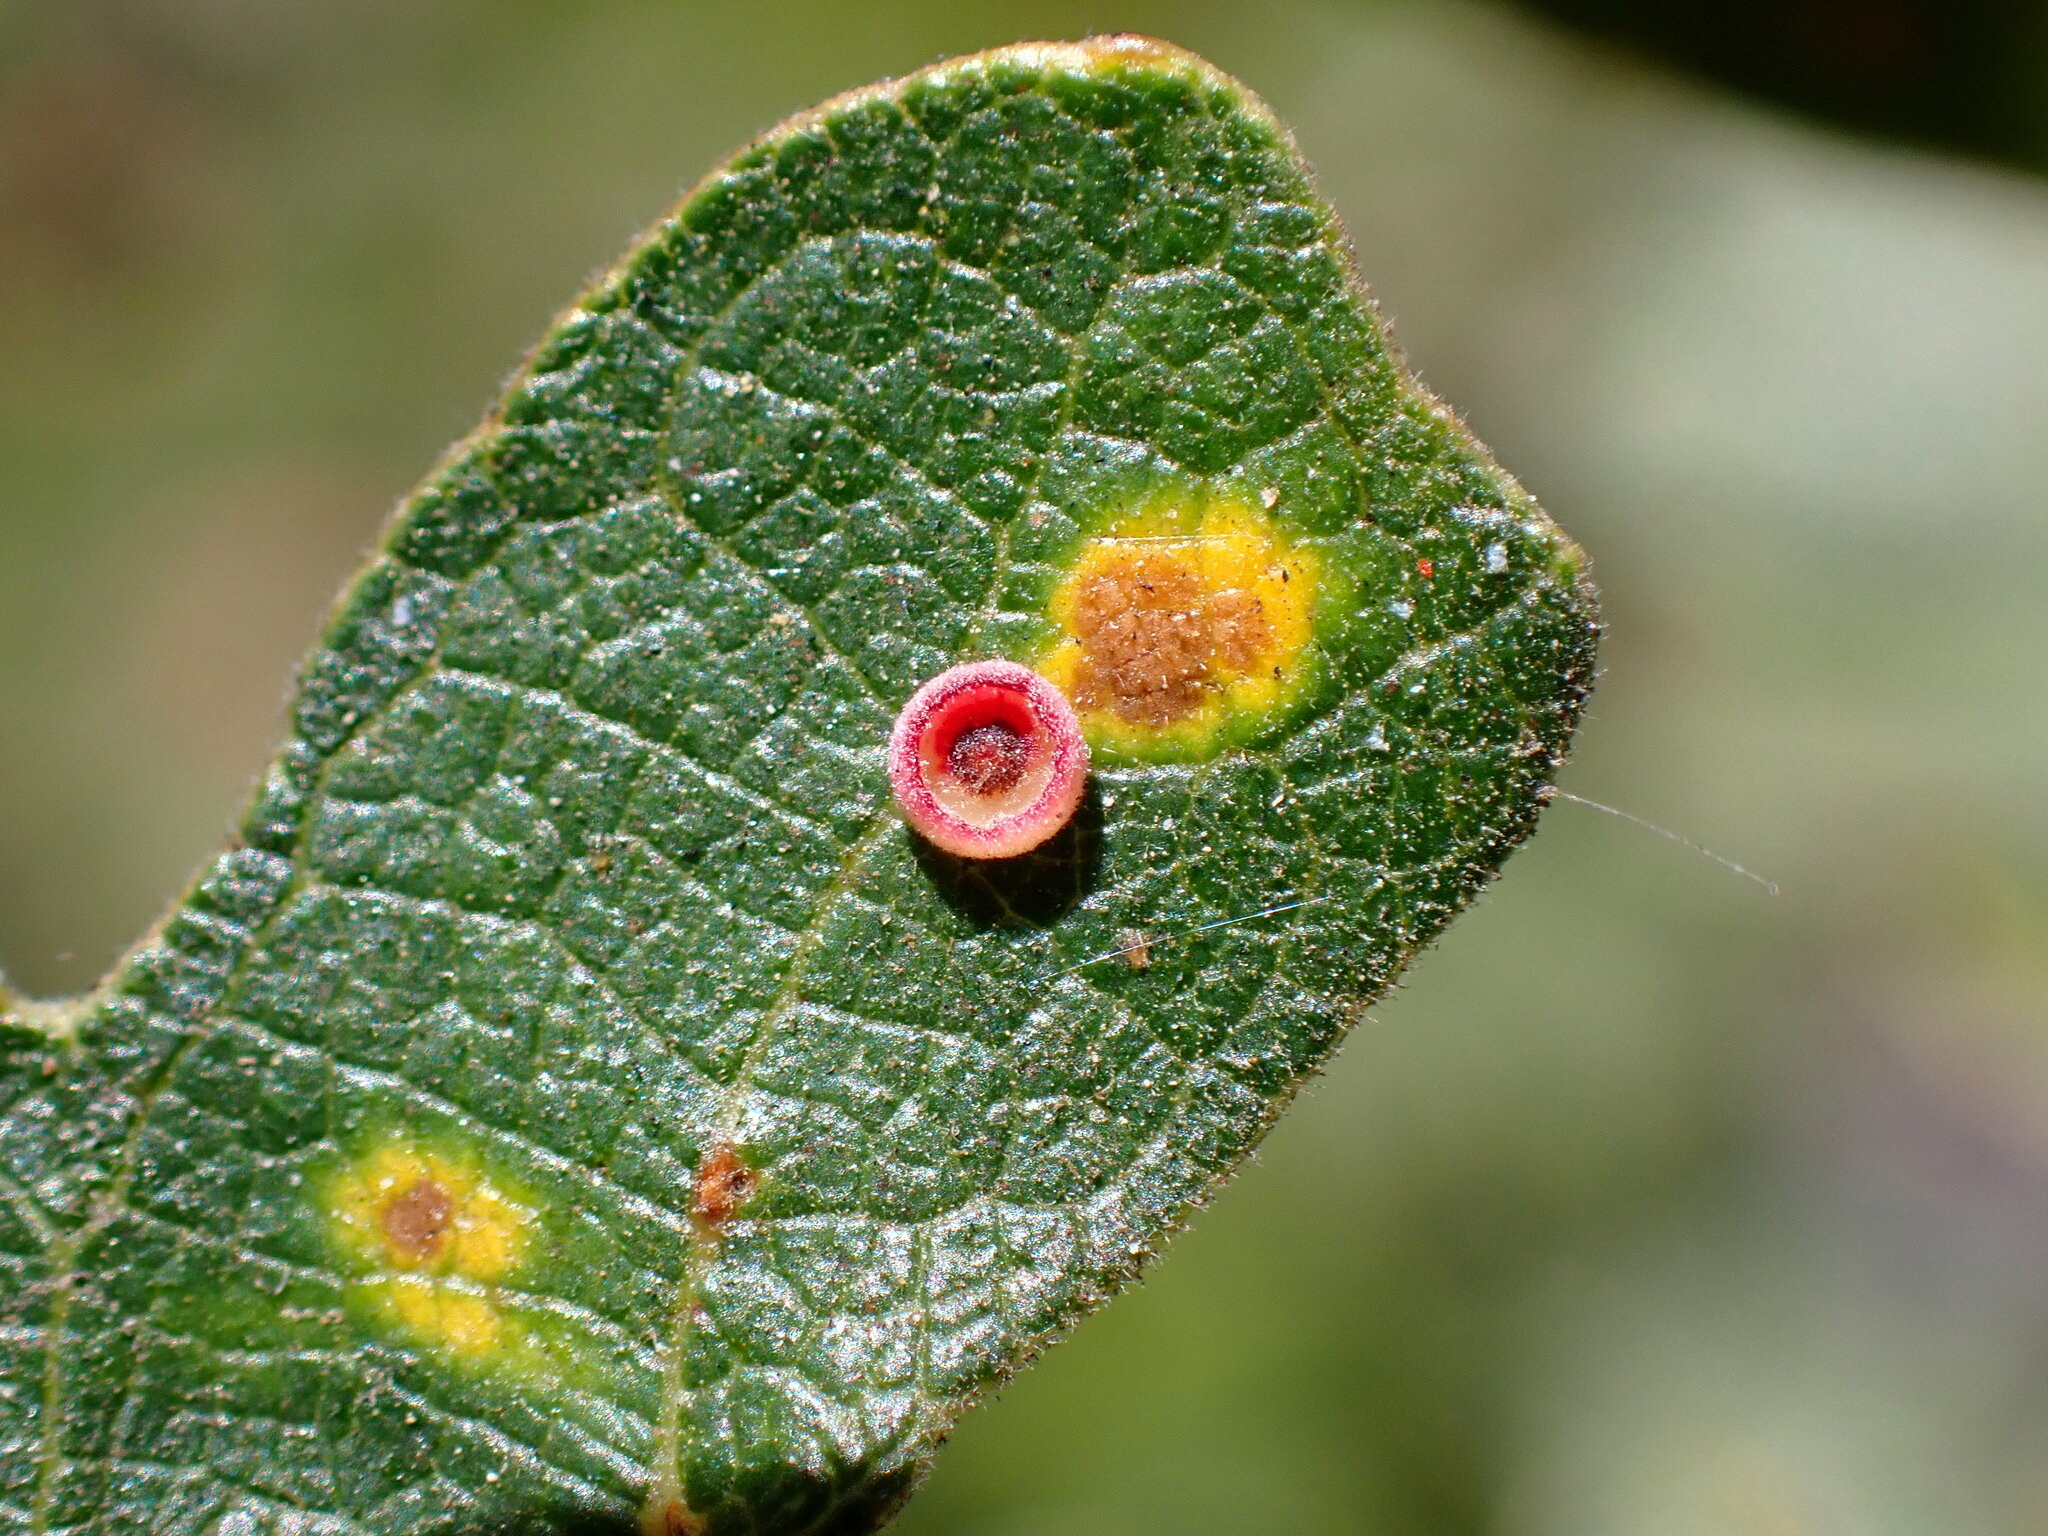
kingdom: Animalia
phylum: Arthropoda
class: Insecta
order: Hymenoptera
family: Cynipidae
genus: Andricus
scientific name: Andricus
